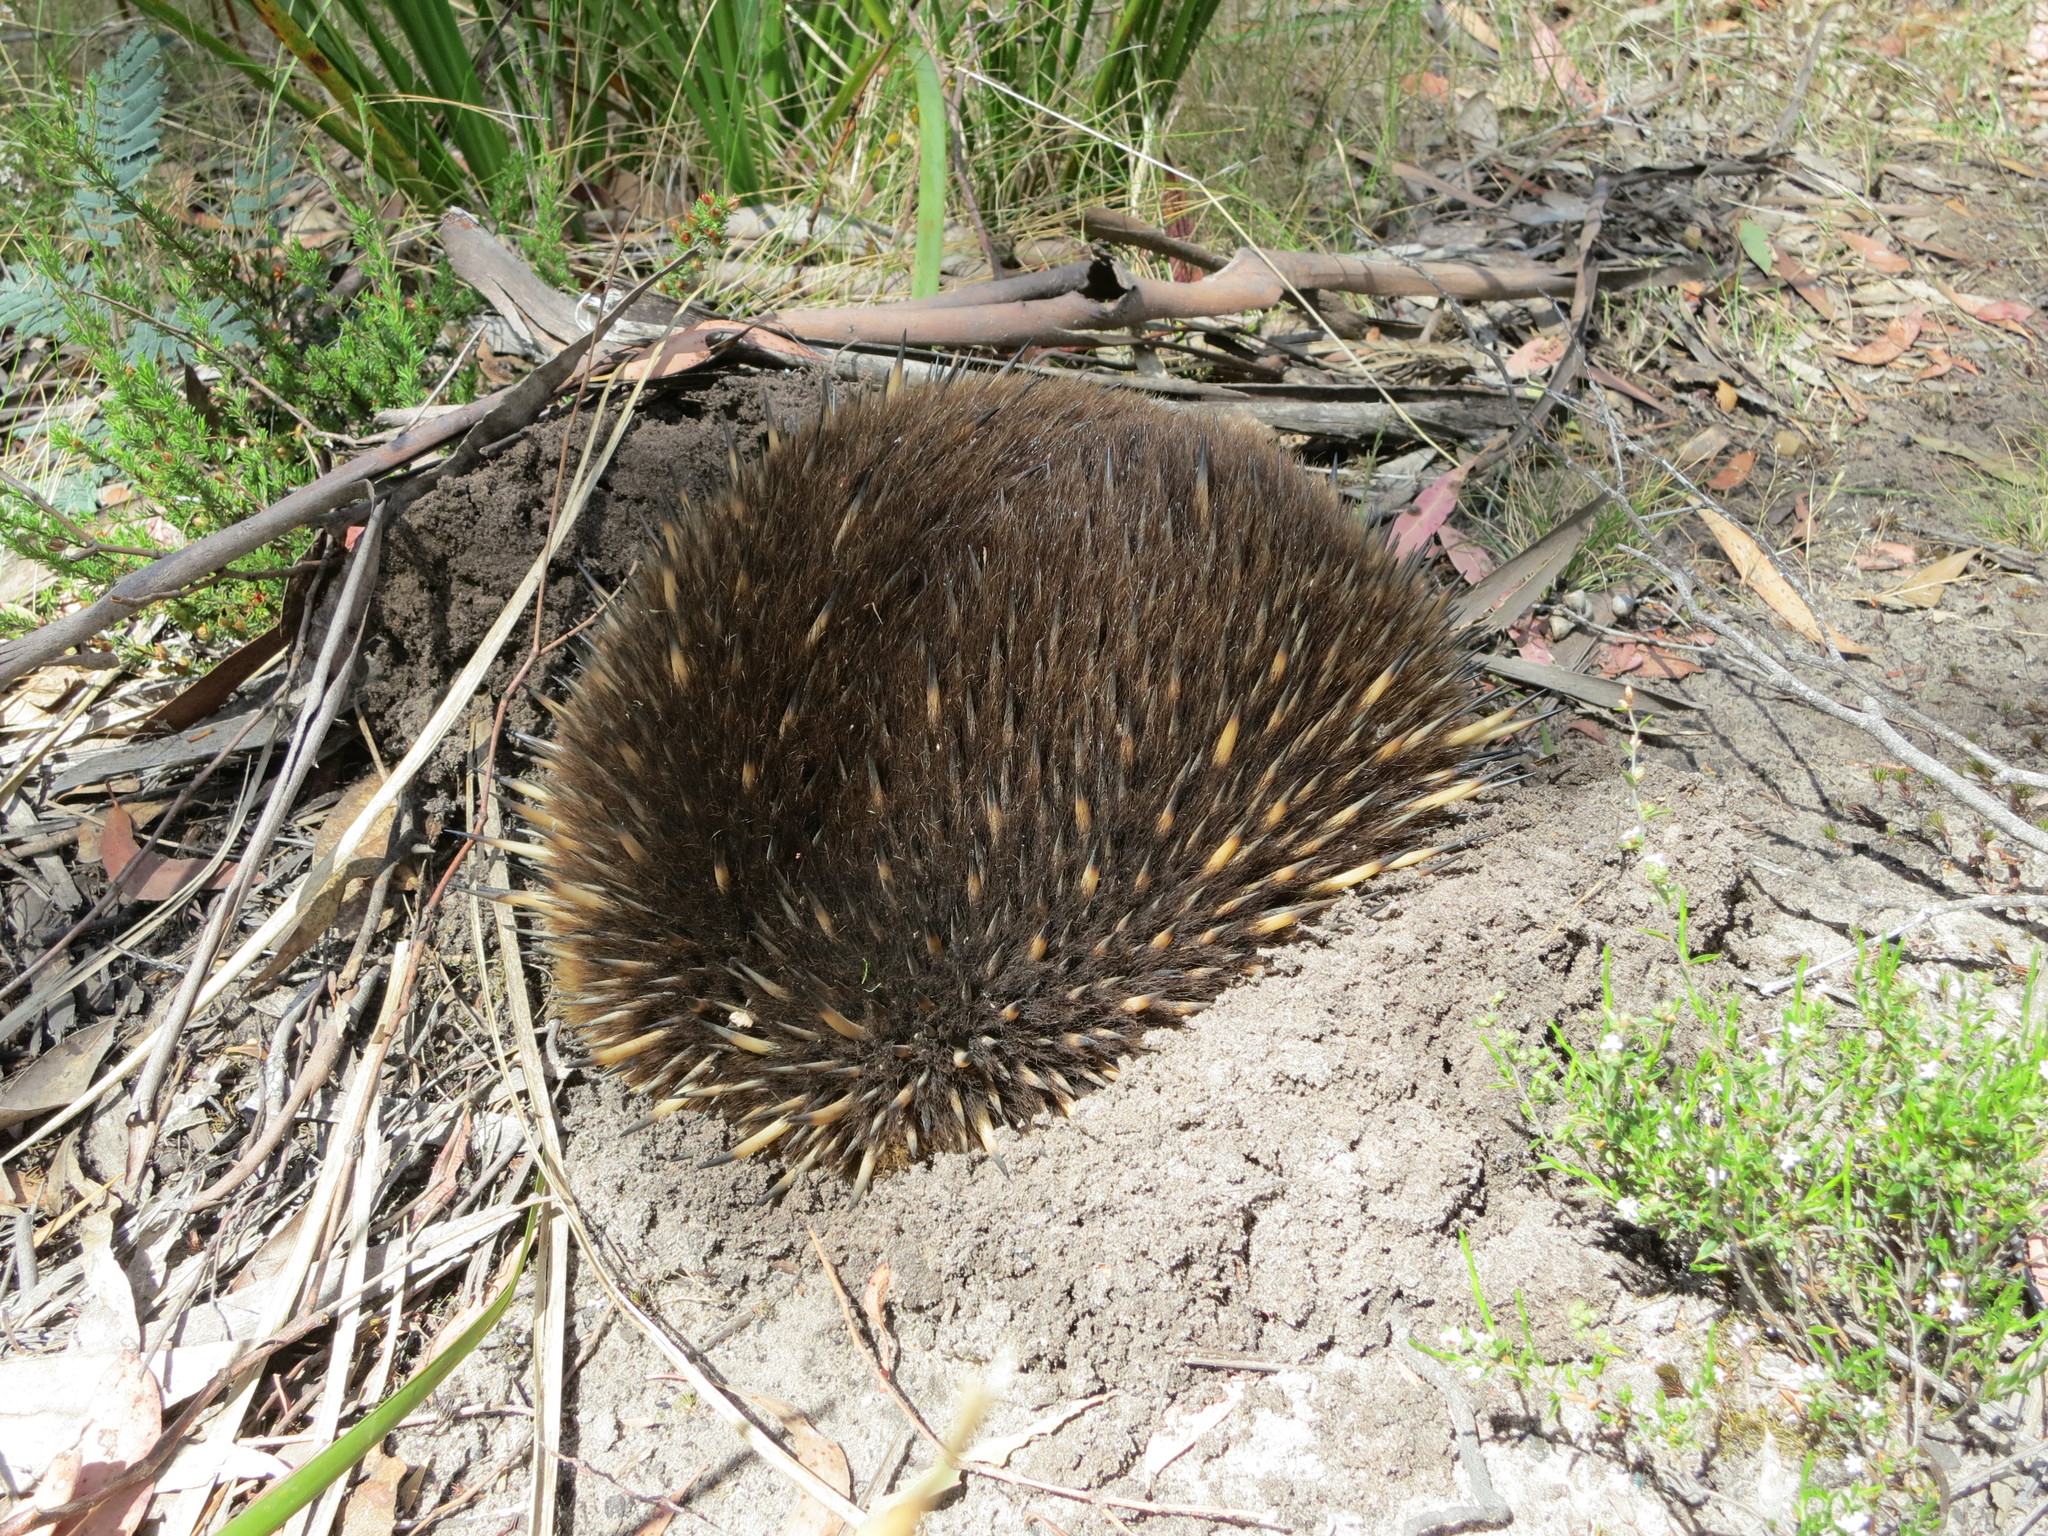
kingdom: Animalia
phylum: Chordata
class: Mammalia
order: Monotremata
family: Tachyglossidae
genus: Tachyglossus
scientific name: Tachyglossus aculeatus
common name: Short-beaked echidna
